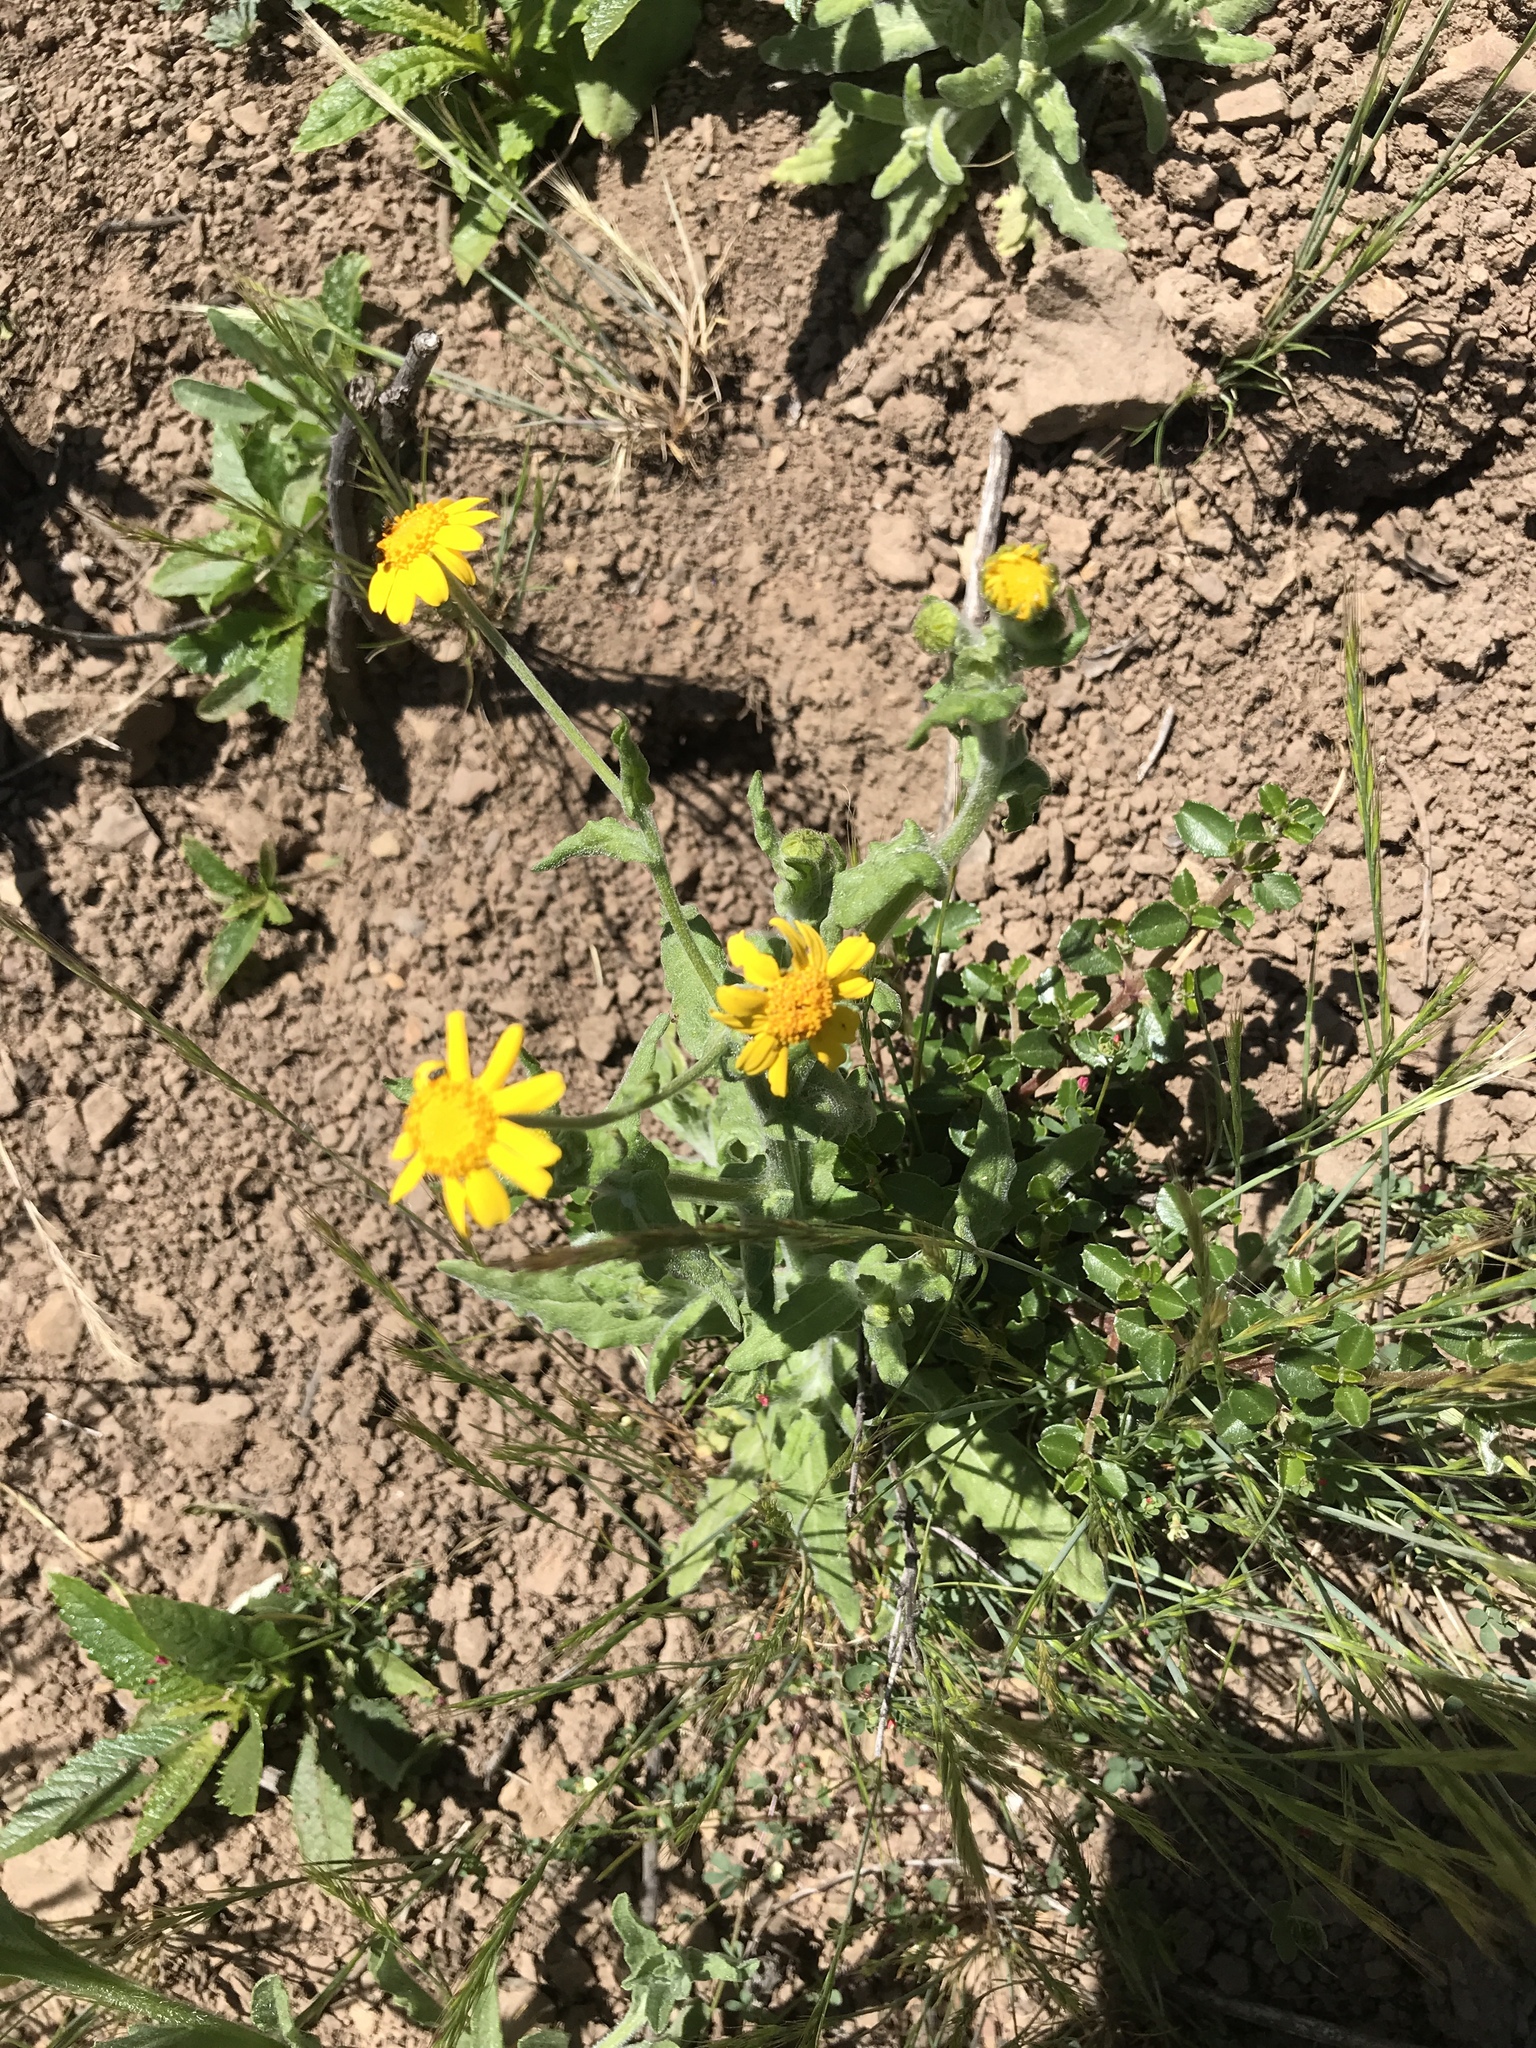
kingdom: Plantae
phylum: Tracheophyta
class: Magnoliopsida
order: Asterales
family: Asteraceae
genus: Monolopia
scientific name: Monolopia gracilens
